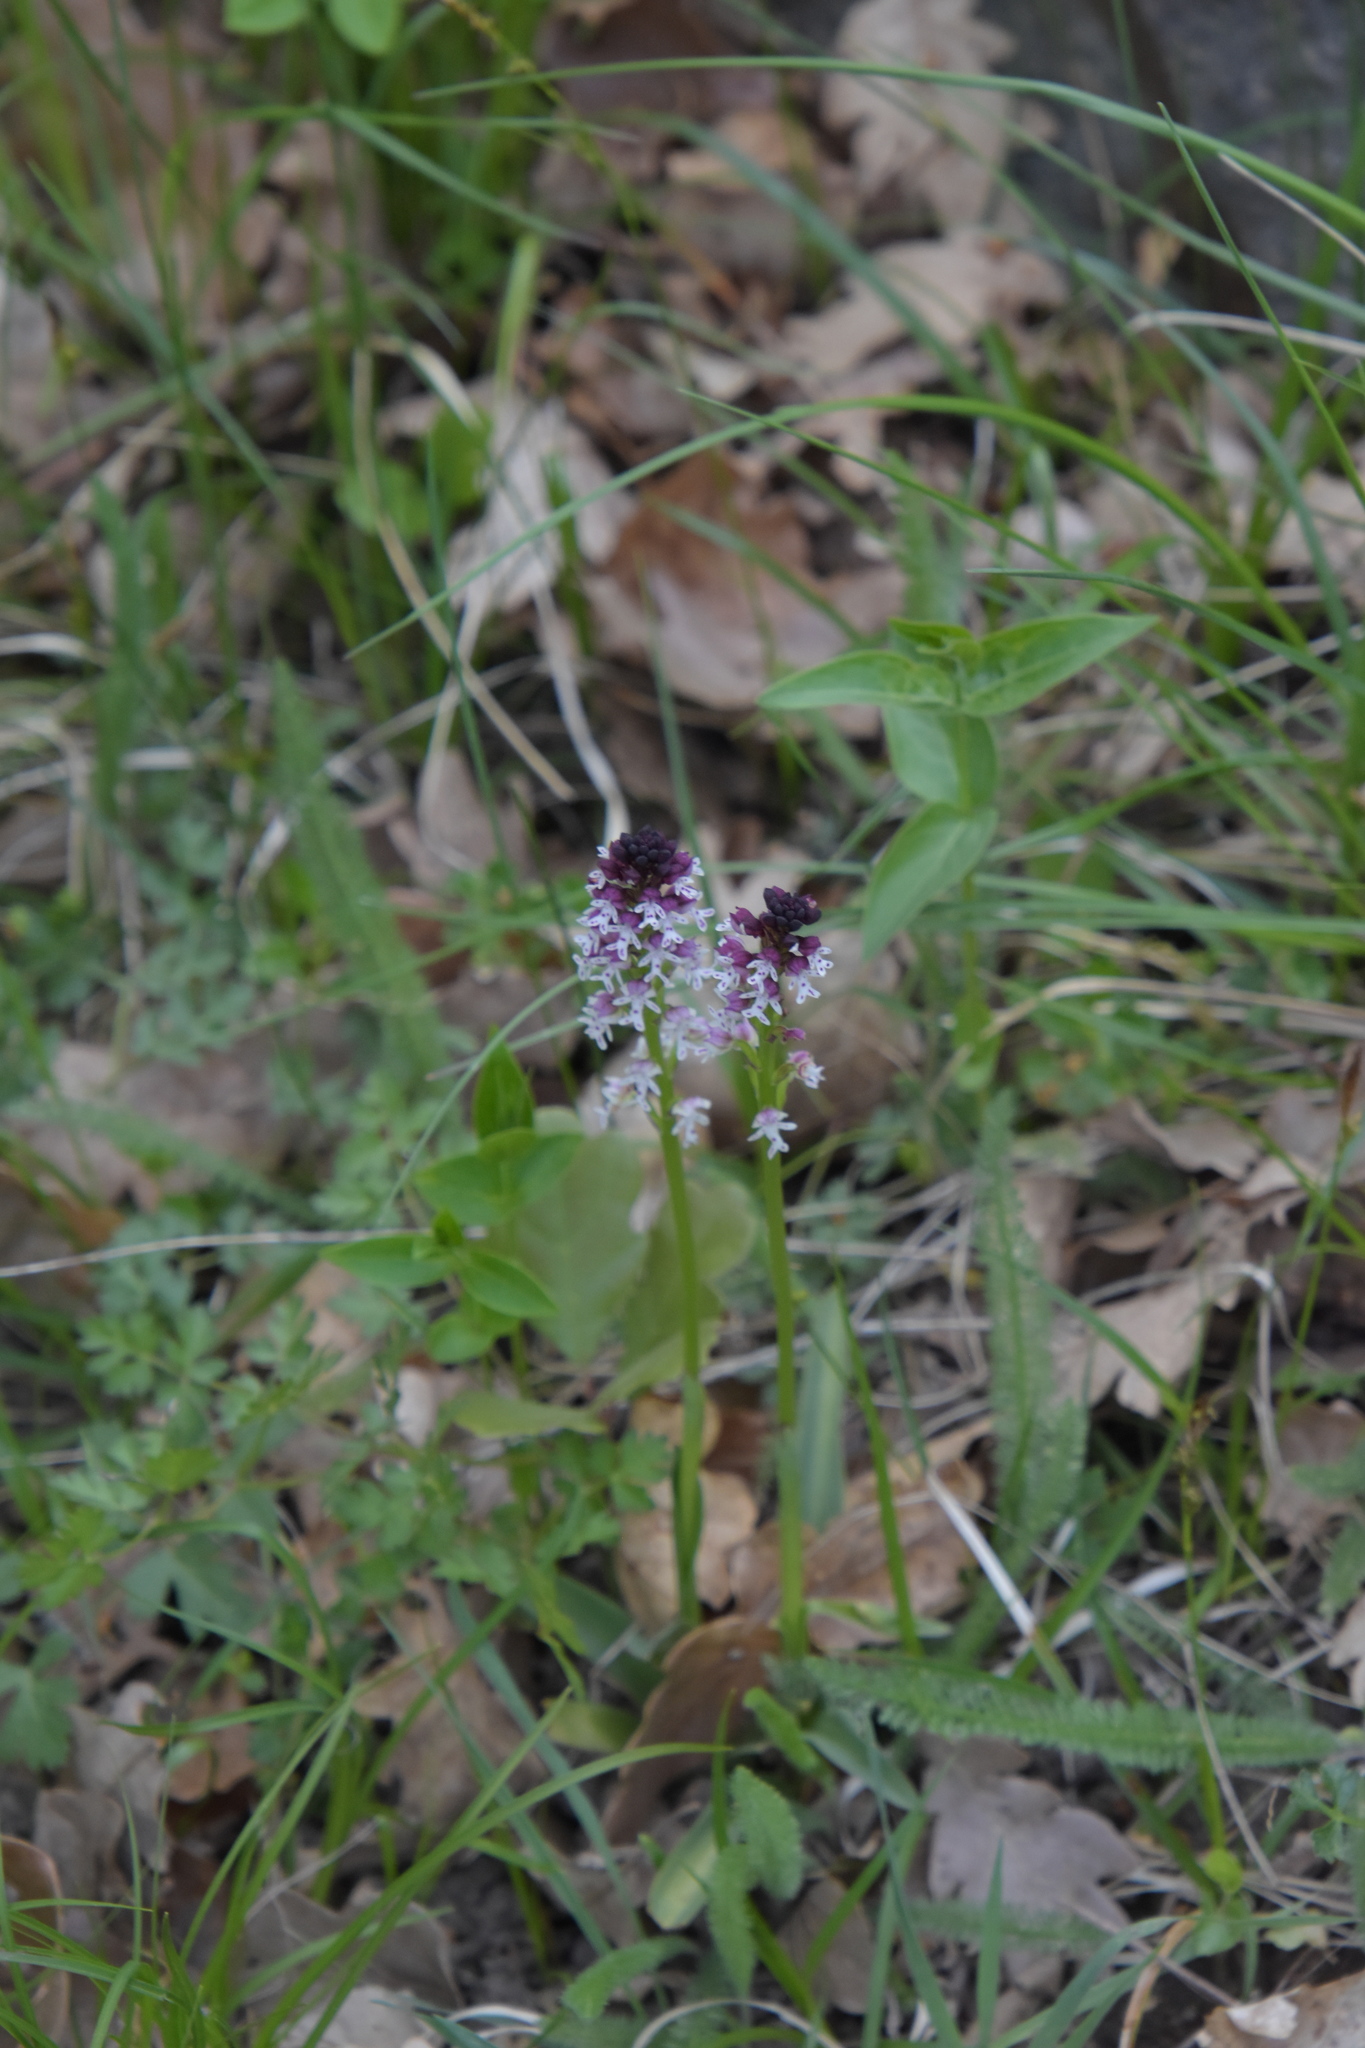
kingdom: Plantae
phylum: Tracheophyta
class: Liliopsida
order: Asparagales
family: Orchidaceae
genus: Neotinea
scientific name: Neotinea ustulata
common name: Burnt orchid
